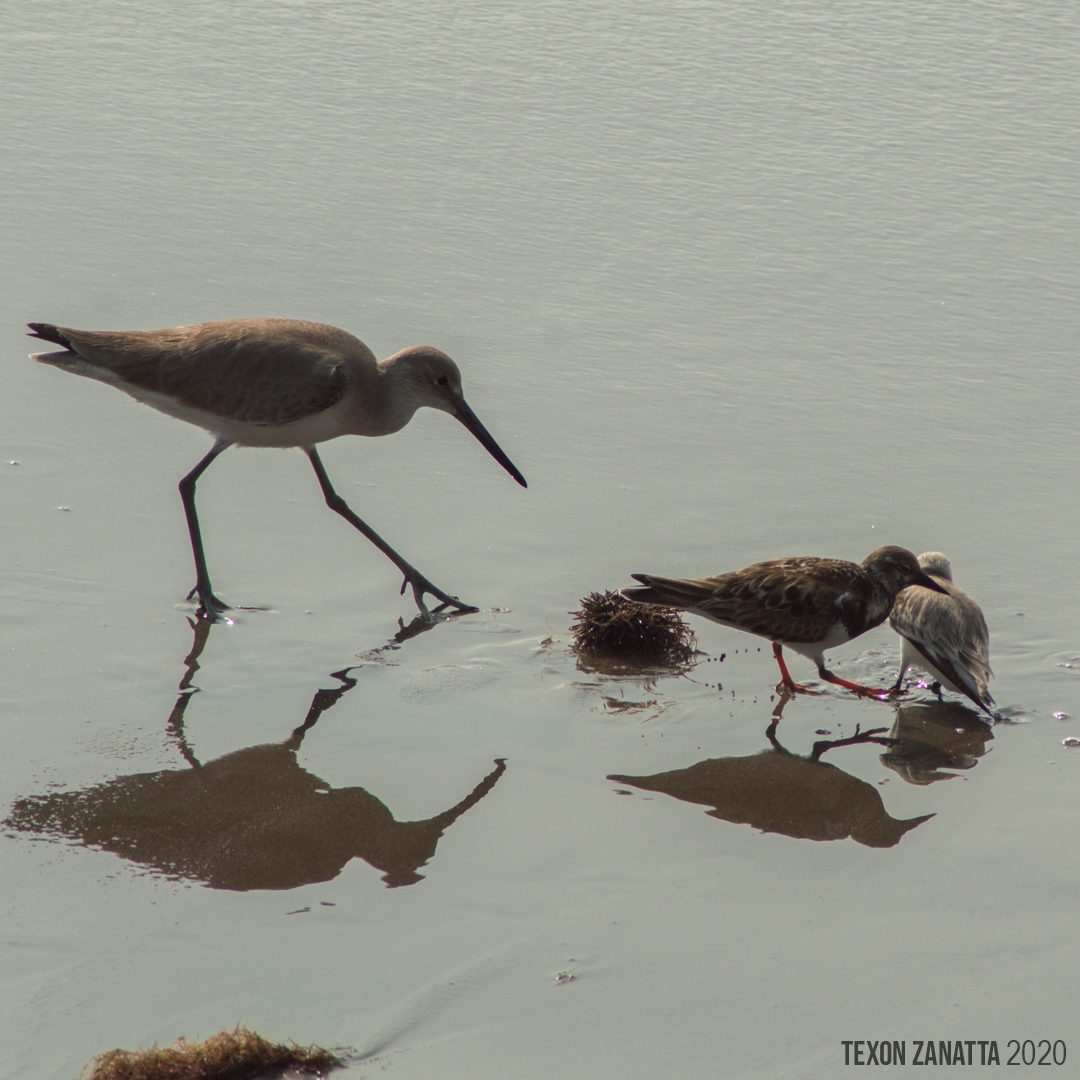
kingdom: Animalia
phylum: Chordata
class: Aves
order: Charadriiformes
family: Scolopacidae
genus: Tringa
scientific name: Tringa semipalmata
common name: Willet
